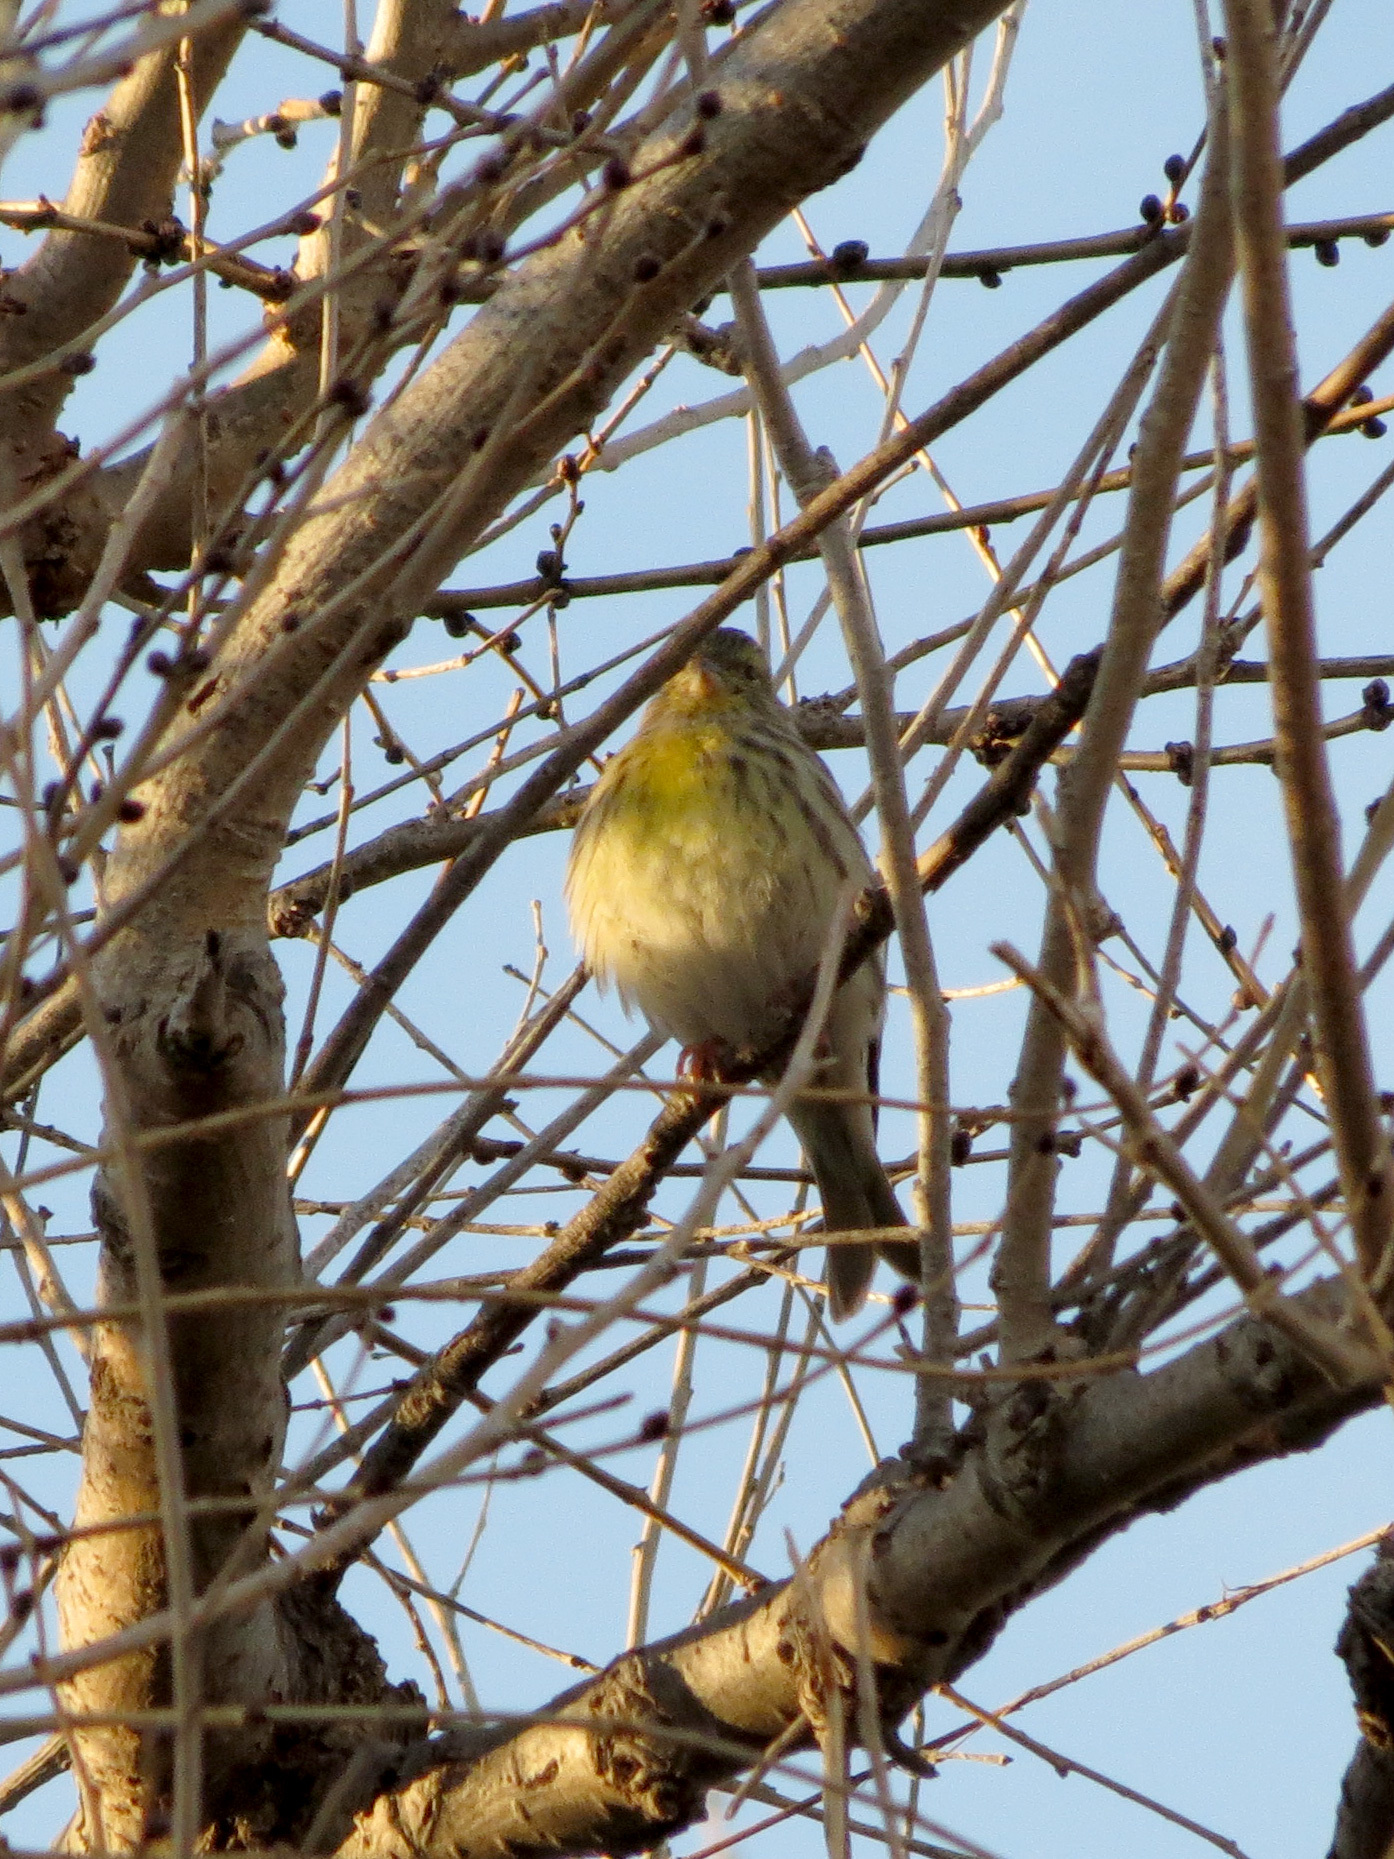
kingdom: Animalia
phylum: Chordata
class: Aves
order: Passeriformes
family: Fringillidae
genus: Serinus
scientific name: Serinus serinus
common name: European serin
